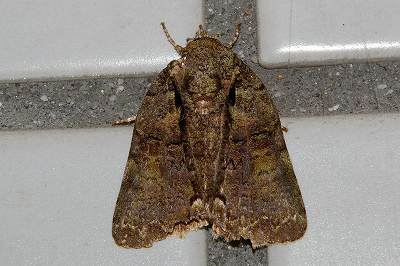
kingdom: Animalia
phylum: Arthropoda
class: Insecta
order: Lepidoptera
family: Nolidae
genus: Blenina
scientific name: Blenina senex
